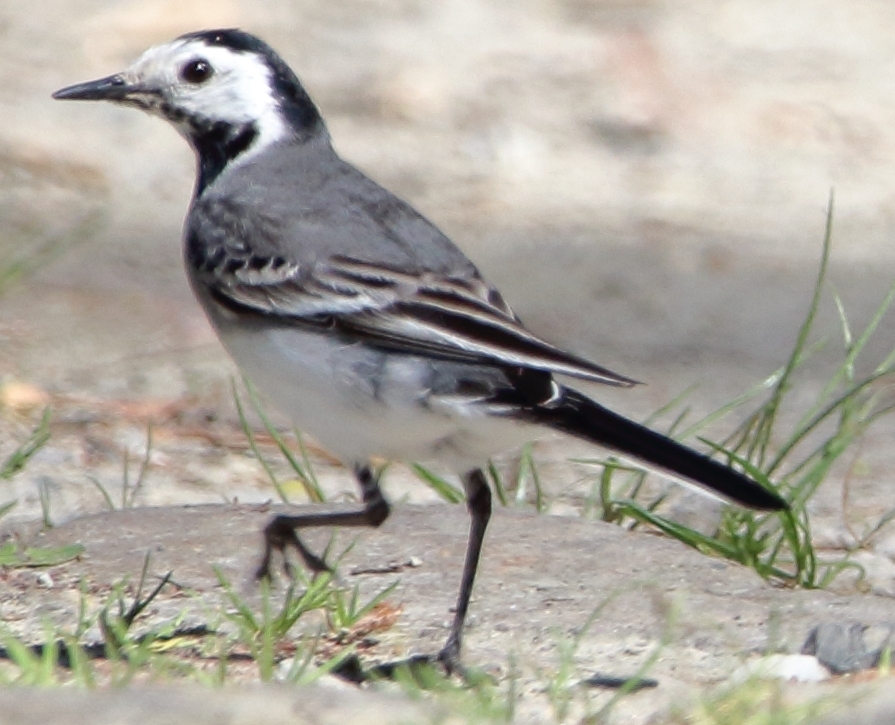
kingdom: Animalia
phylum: Chordata
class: Aves
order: Passeriformes
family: Motacillidae
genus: Motacilla
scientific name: Motacilla alba
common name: White wagtail
